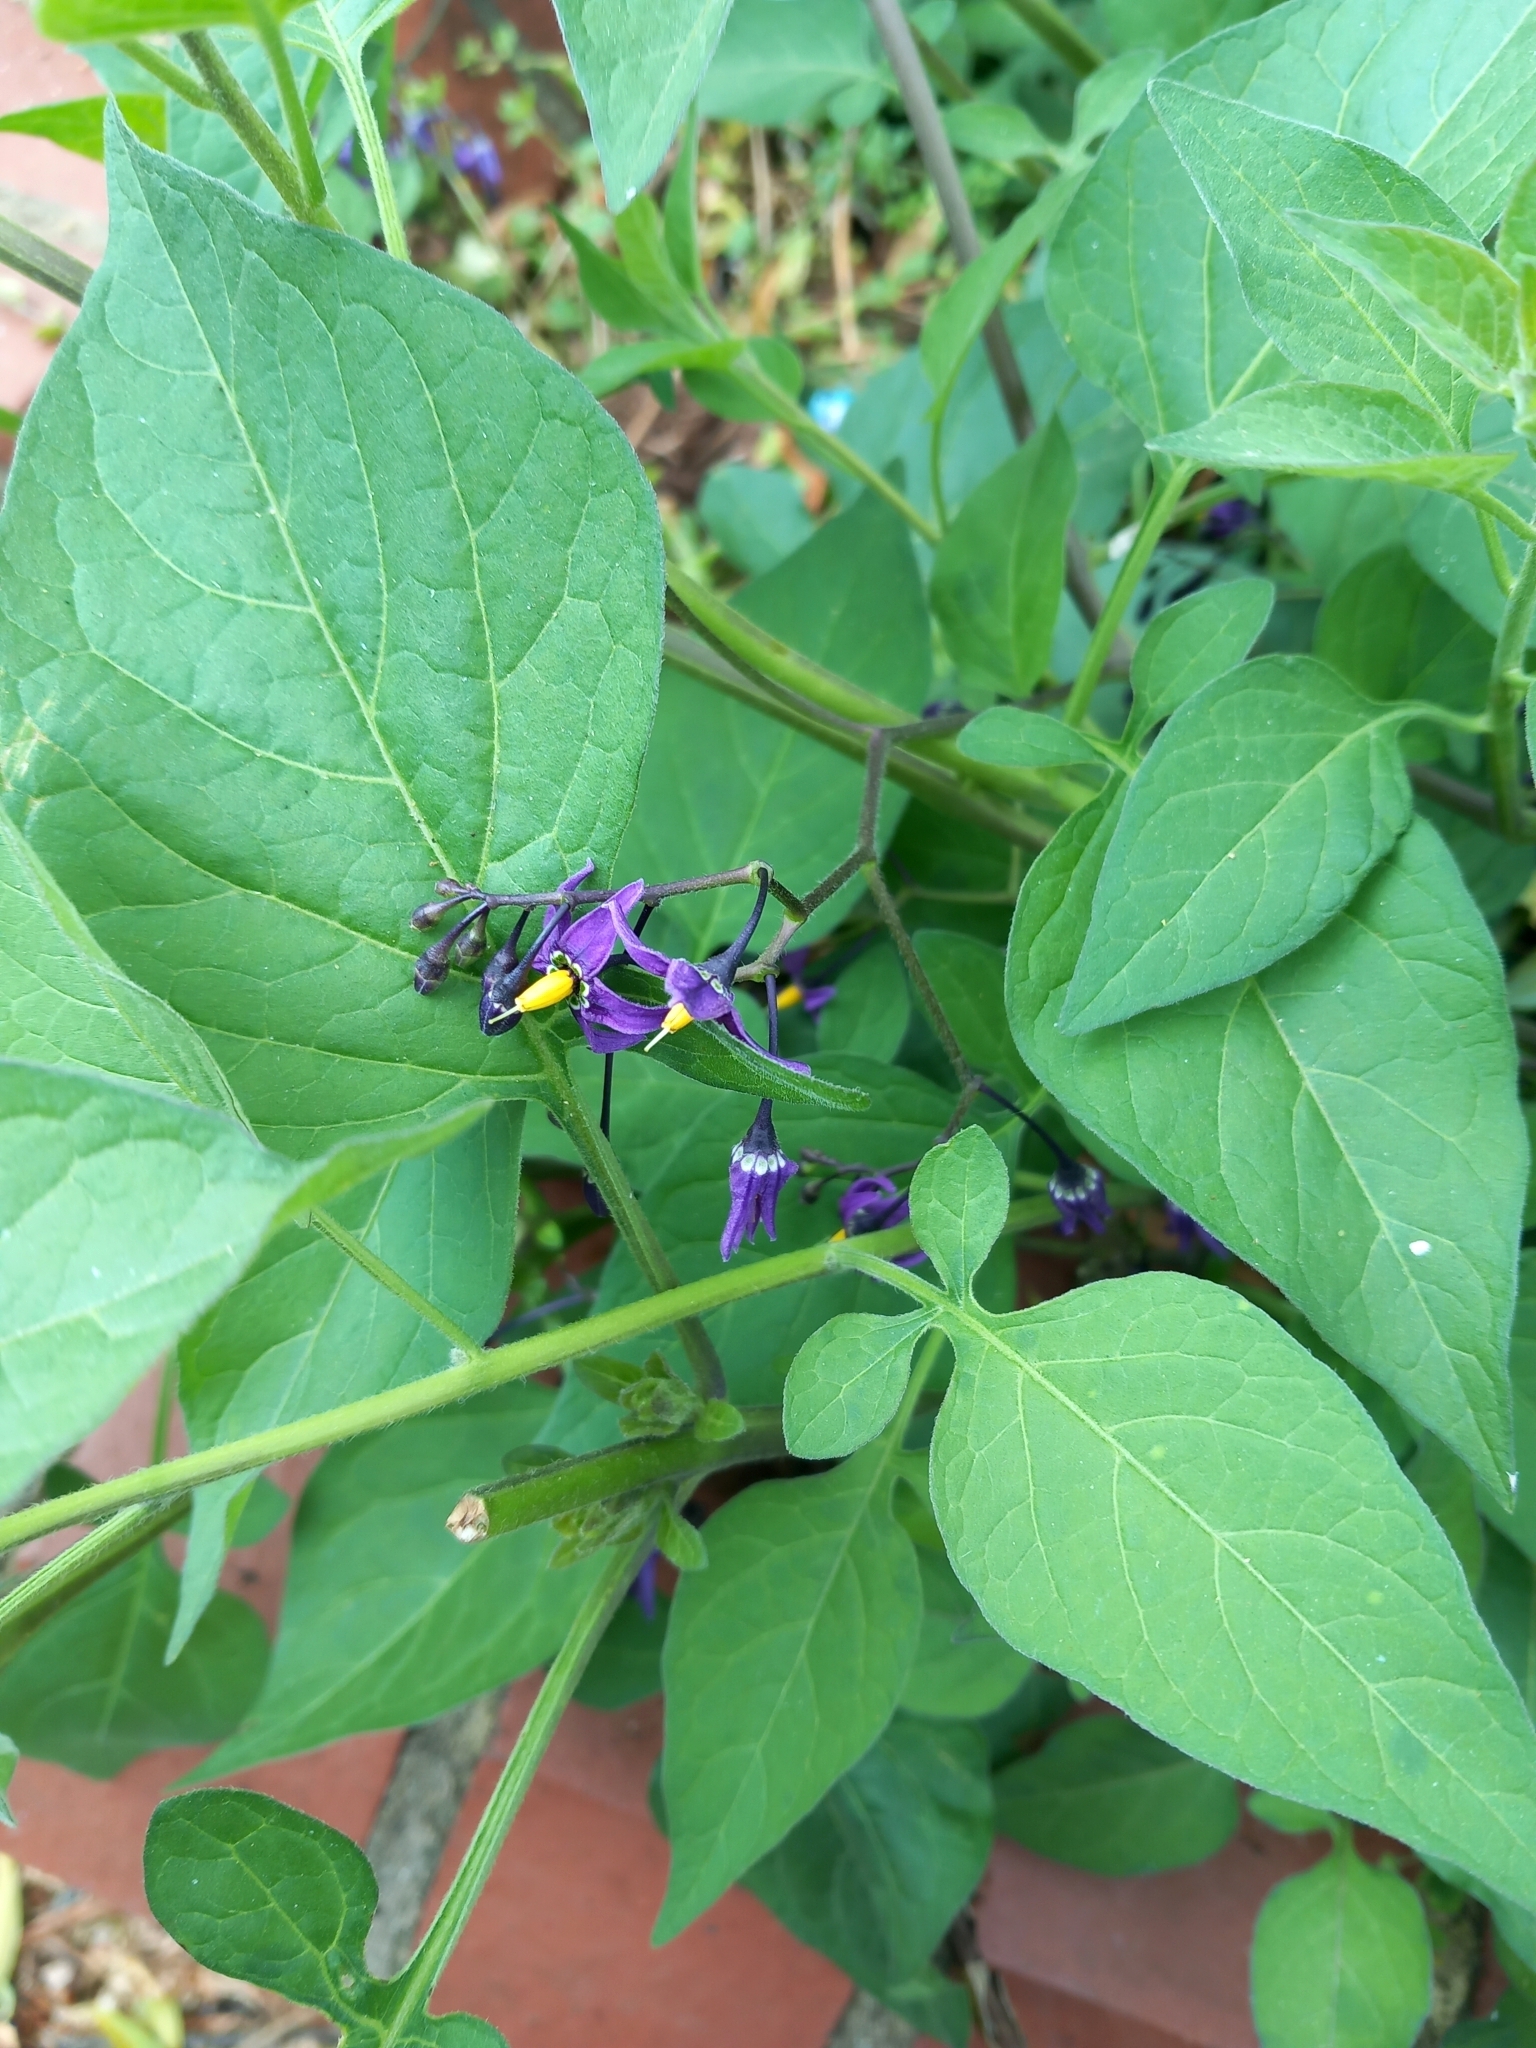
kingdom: Plantae
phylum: Tracheophyta
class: Magnoliopsida
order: Solanales
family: Solanaceae
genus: Solanum
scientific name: Solanum dulcamara
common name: Climbing nightshade
